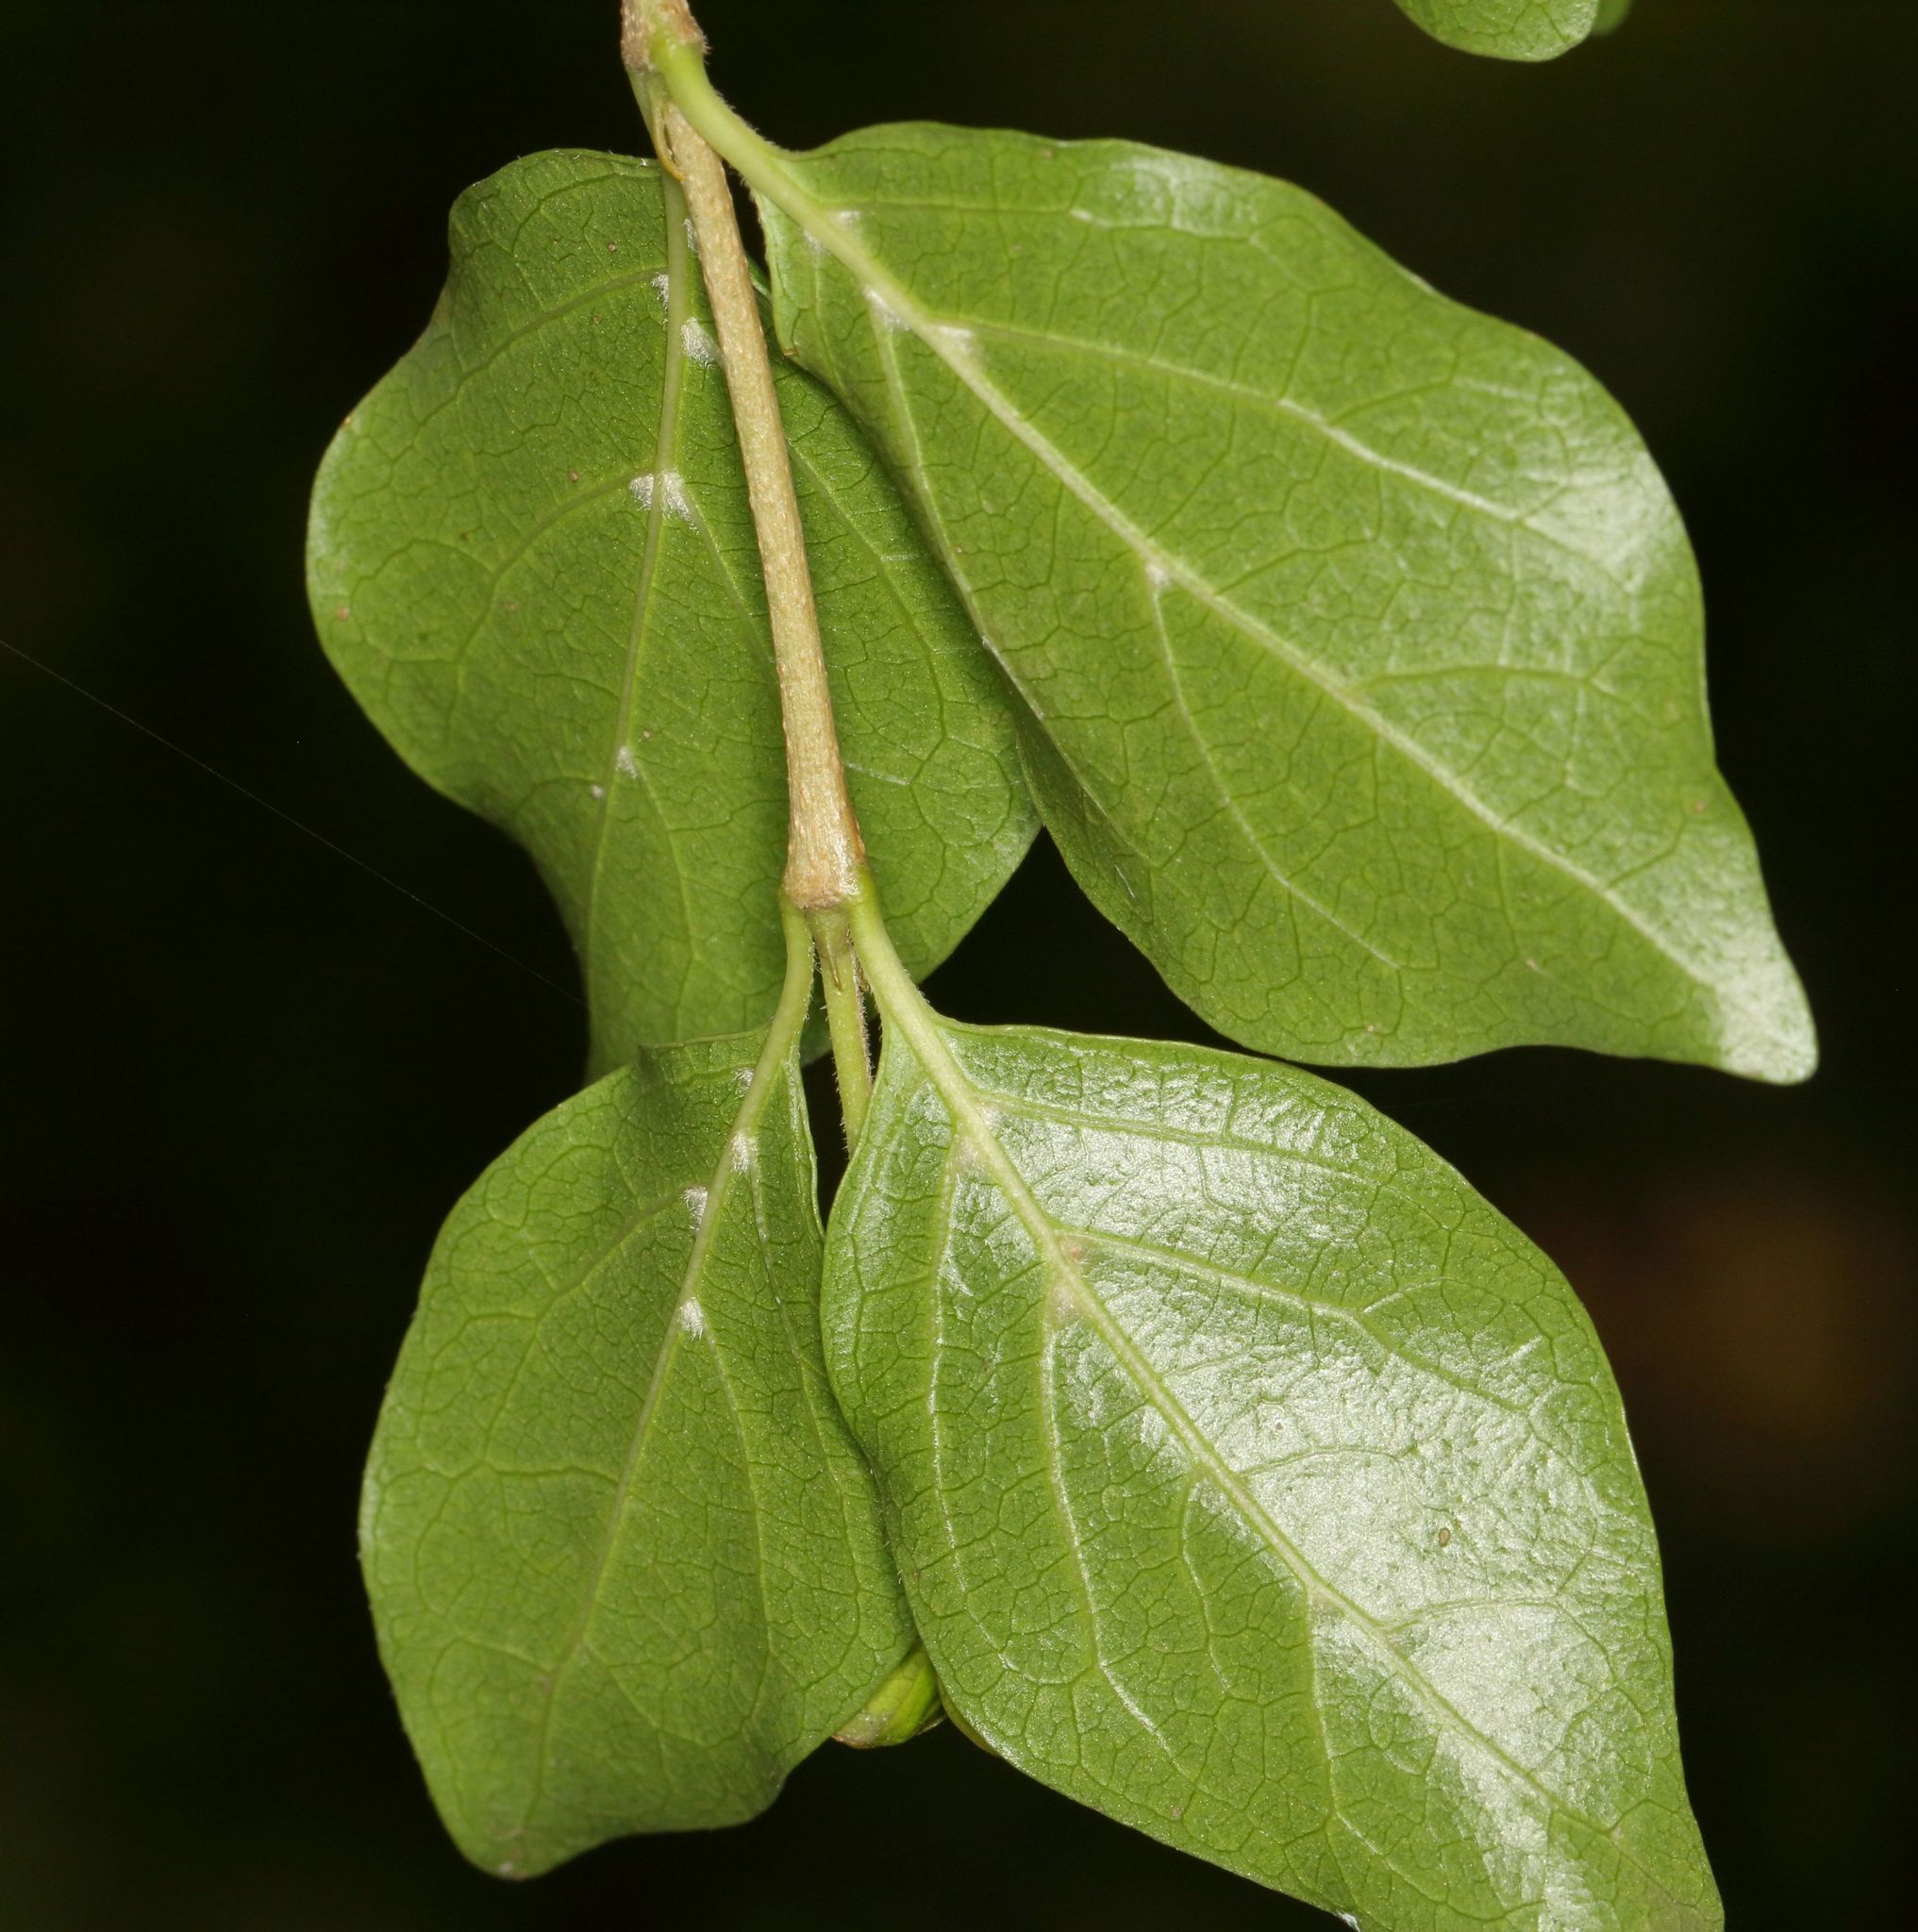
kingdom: Plantae
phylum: Tracheophyta
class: Magnoliopsida
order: Gentianales
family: Rubiaceae
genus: Afrocanthium
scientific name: Afrocanthium mundianum
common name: Rock-alder
